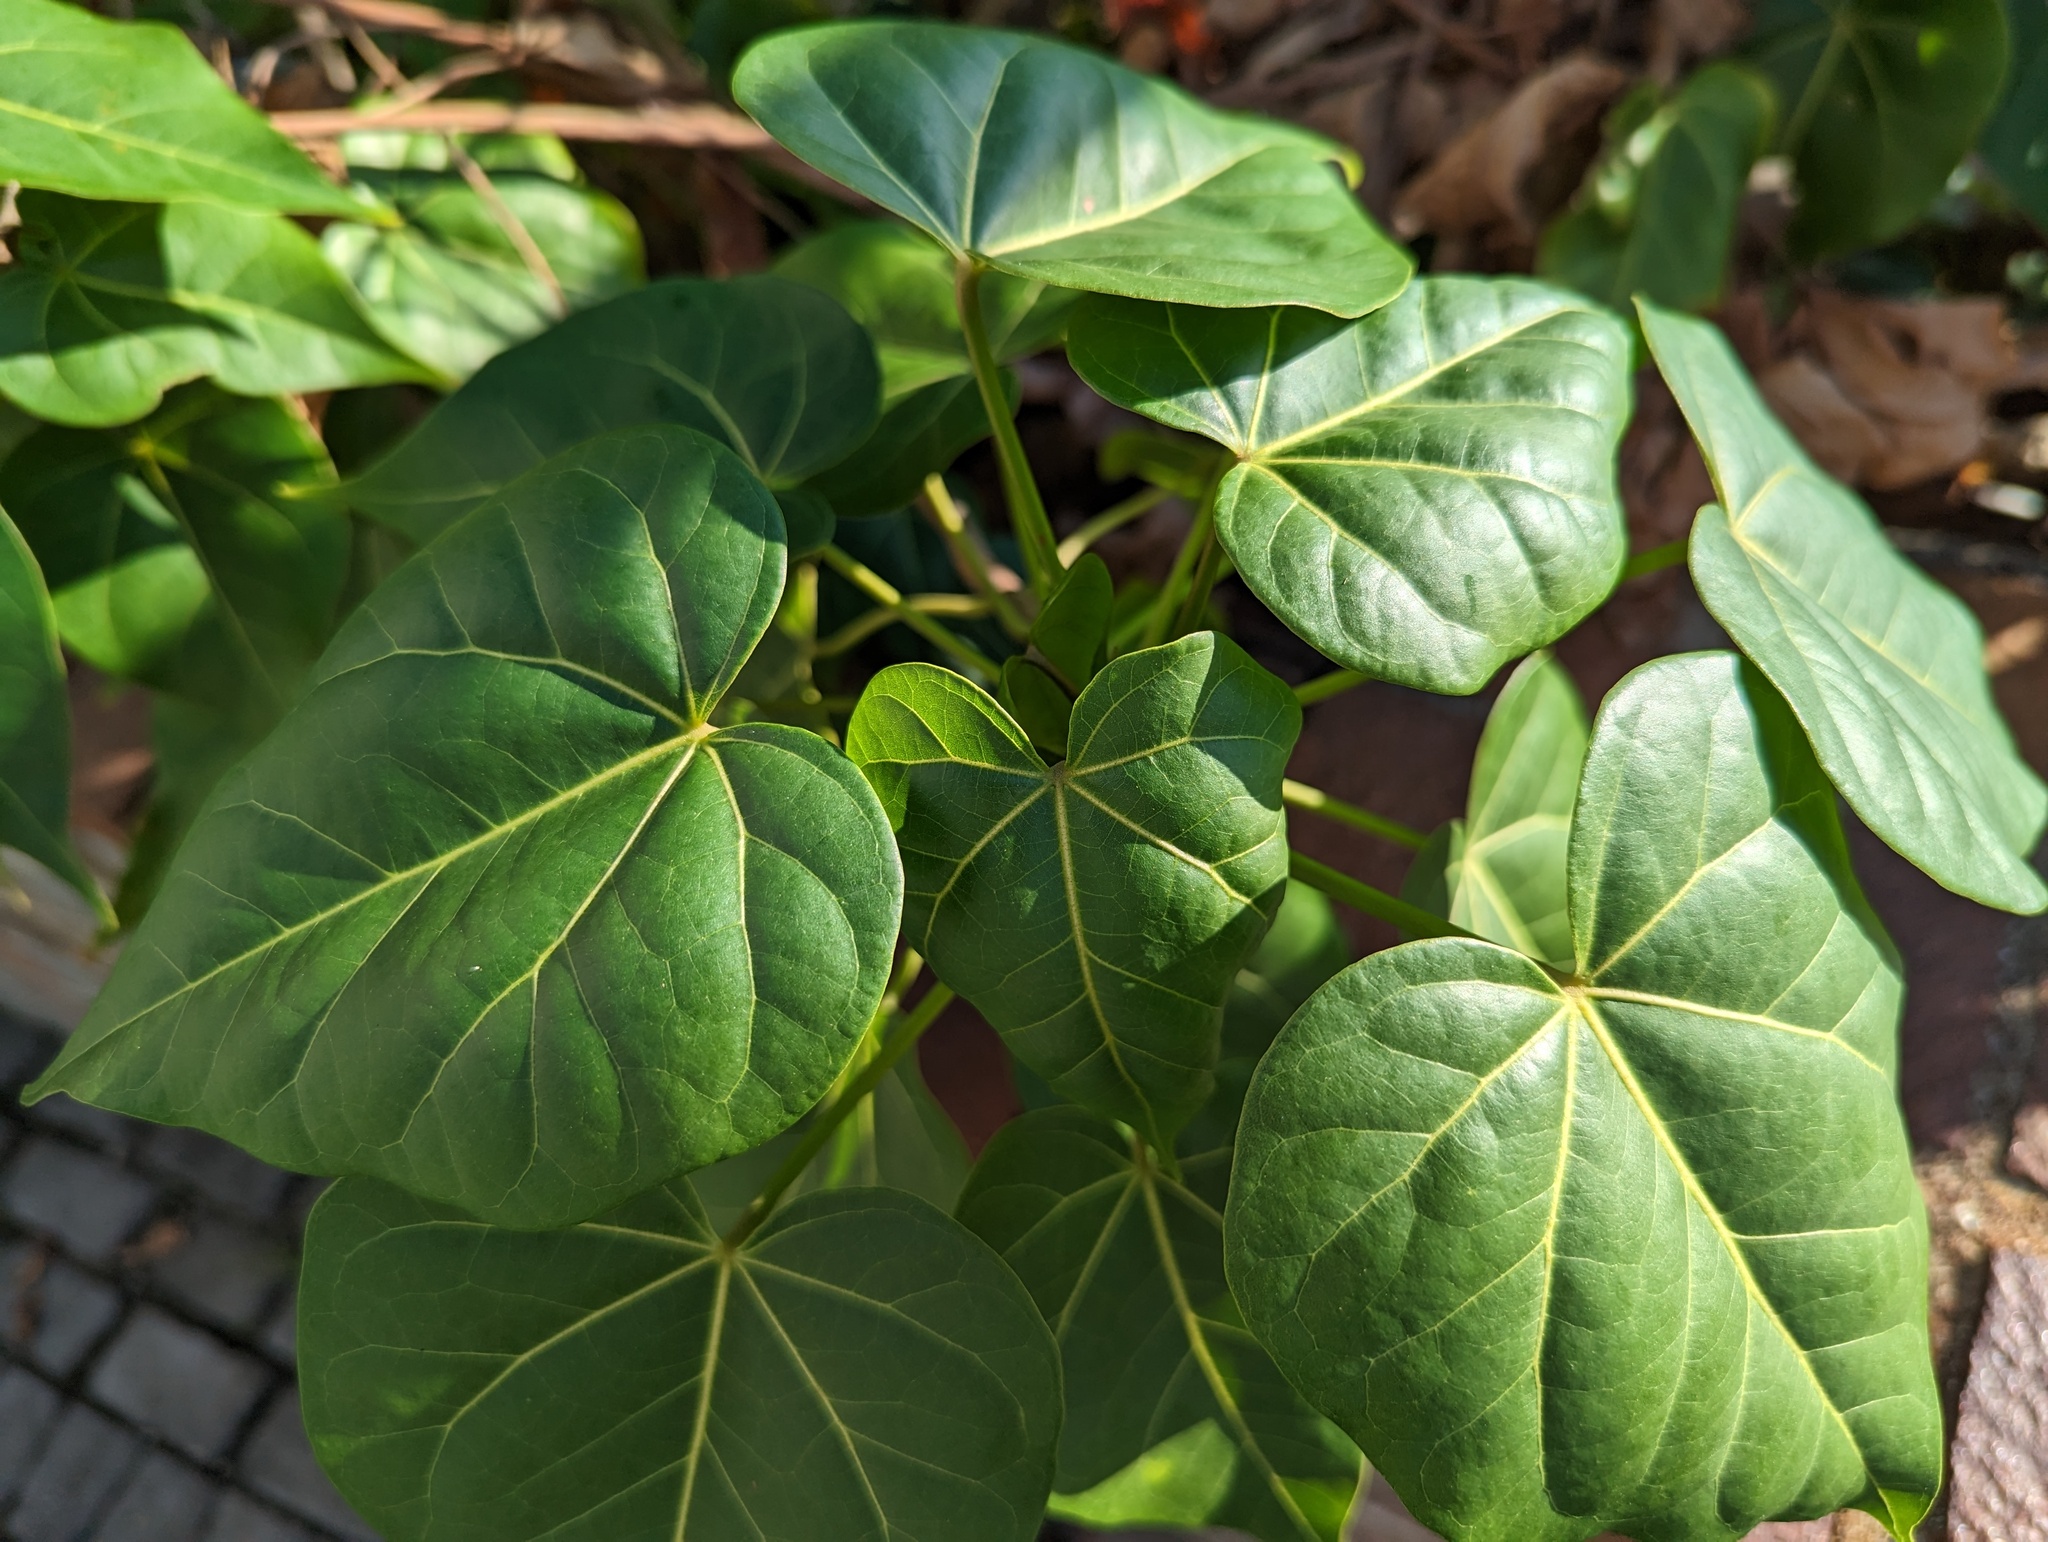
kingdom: Plantae
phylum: Tracheophyta
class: Magnoliopsida
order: Malvales
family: Malvaceae
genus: Thespesia
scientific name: Thespesia populnea
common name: Seaside mahoe
